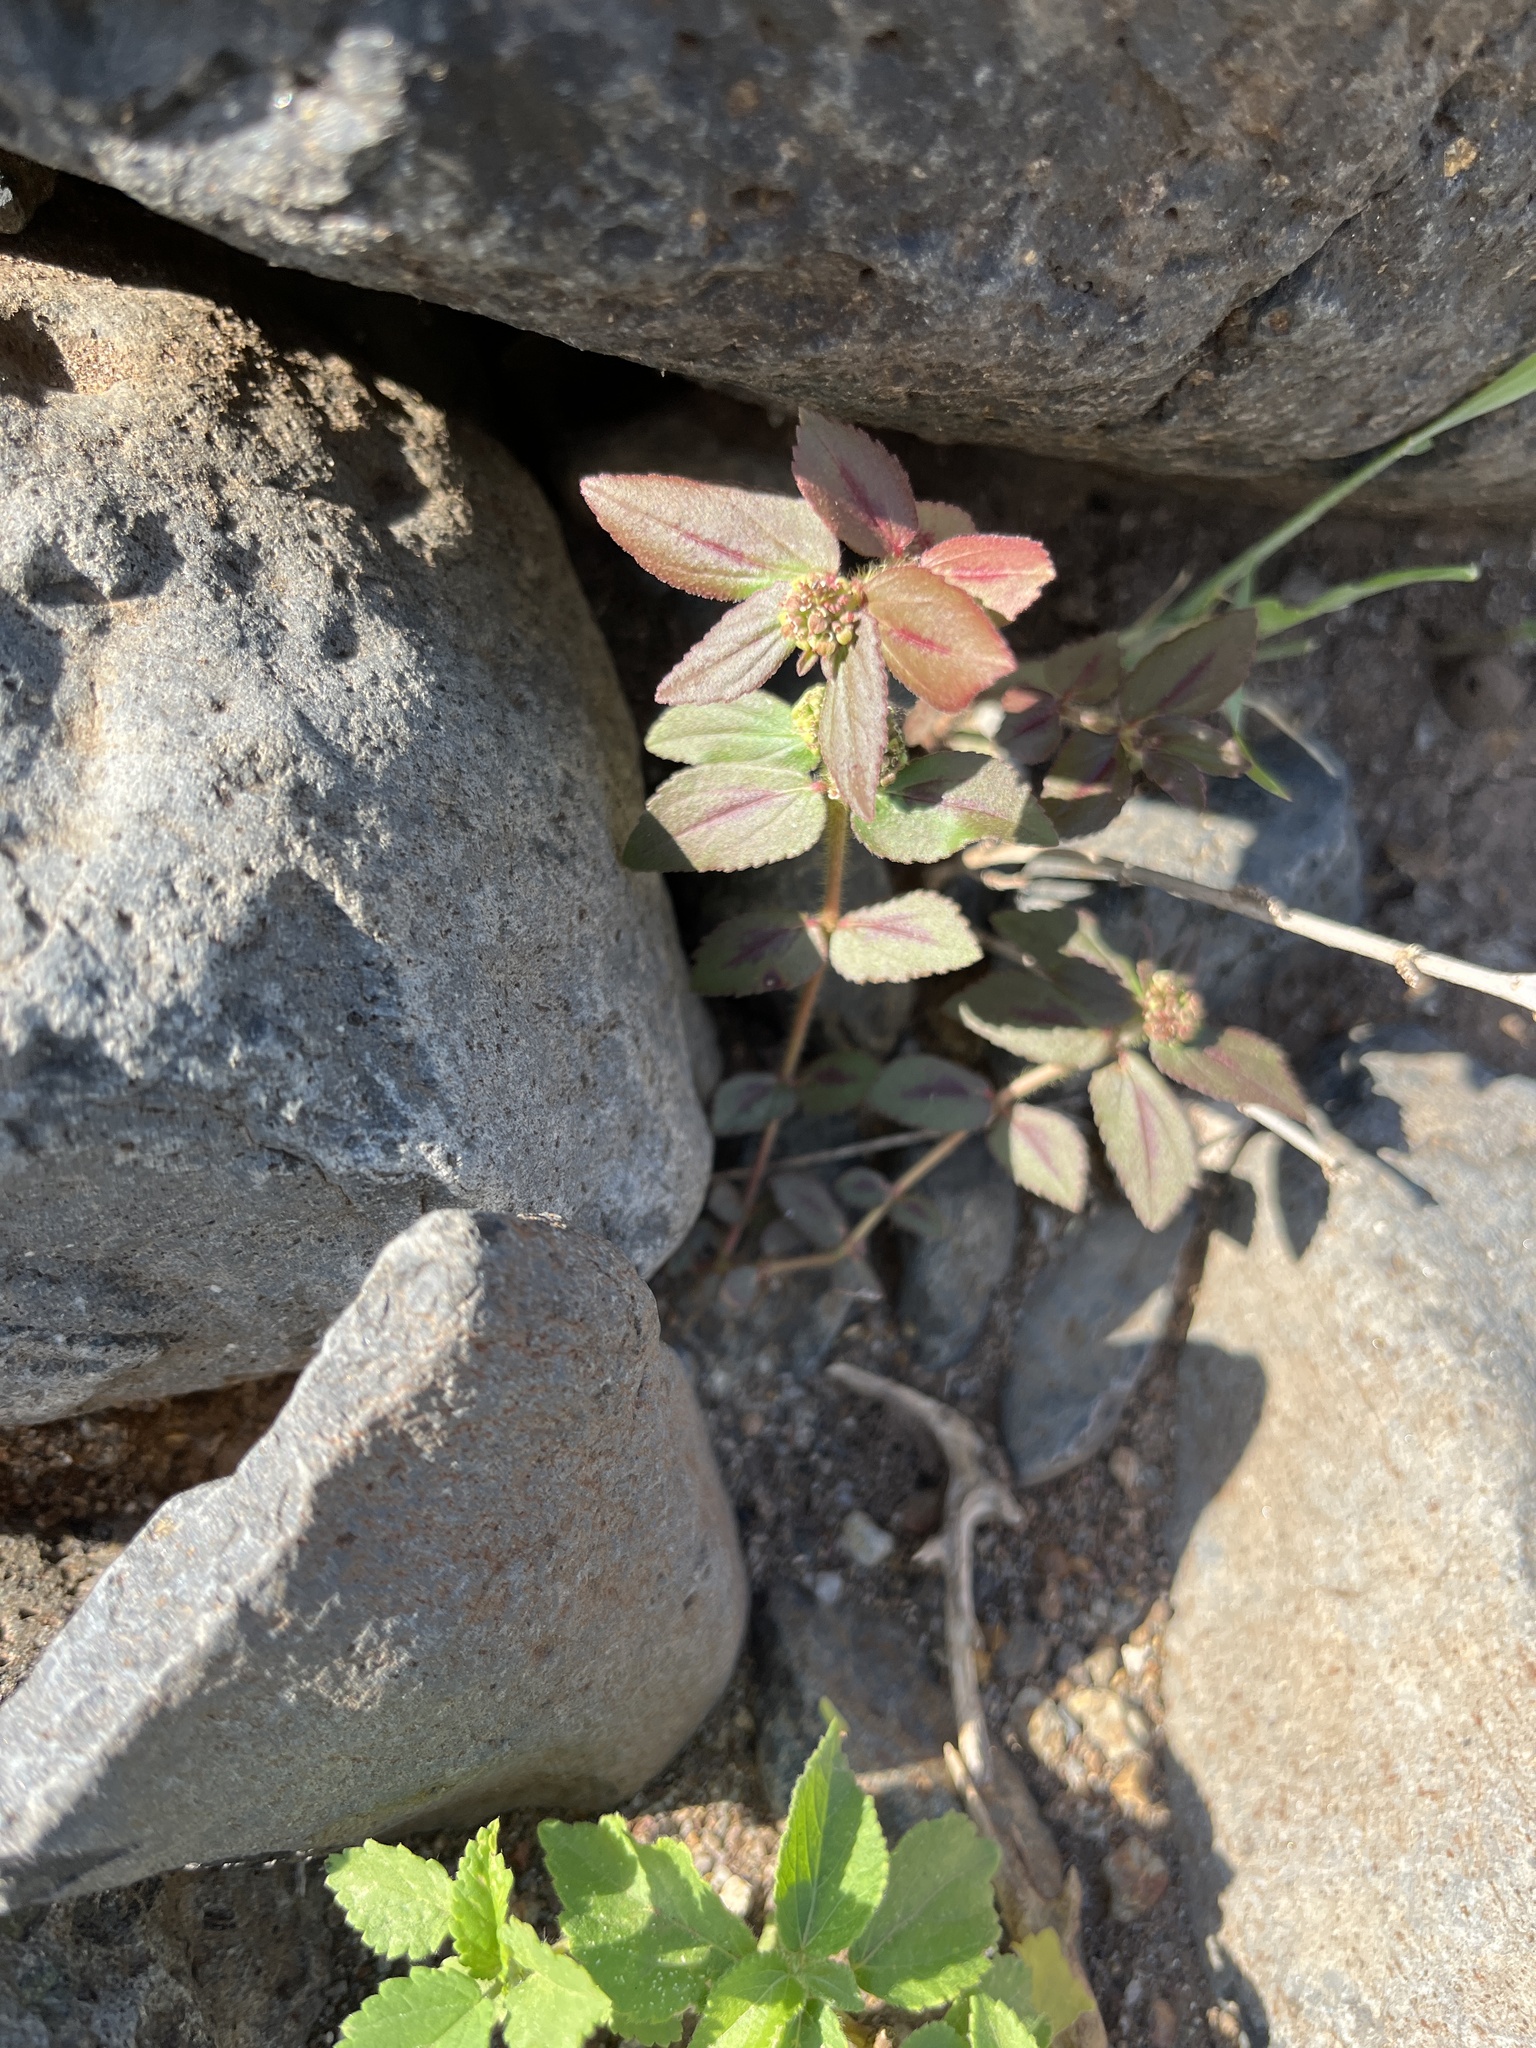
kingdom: Plantae
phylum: Tracheophyta
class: Magnoliopsida
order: Malpighiales
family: Euphorbiaceae
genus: Euphorbia
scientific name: Euphorbia hirta
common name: Pillpod sandmat
